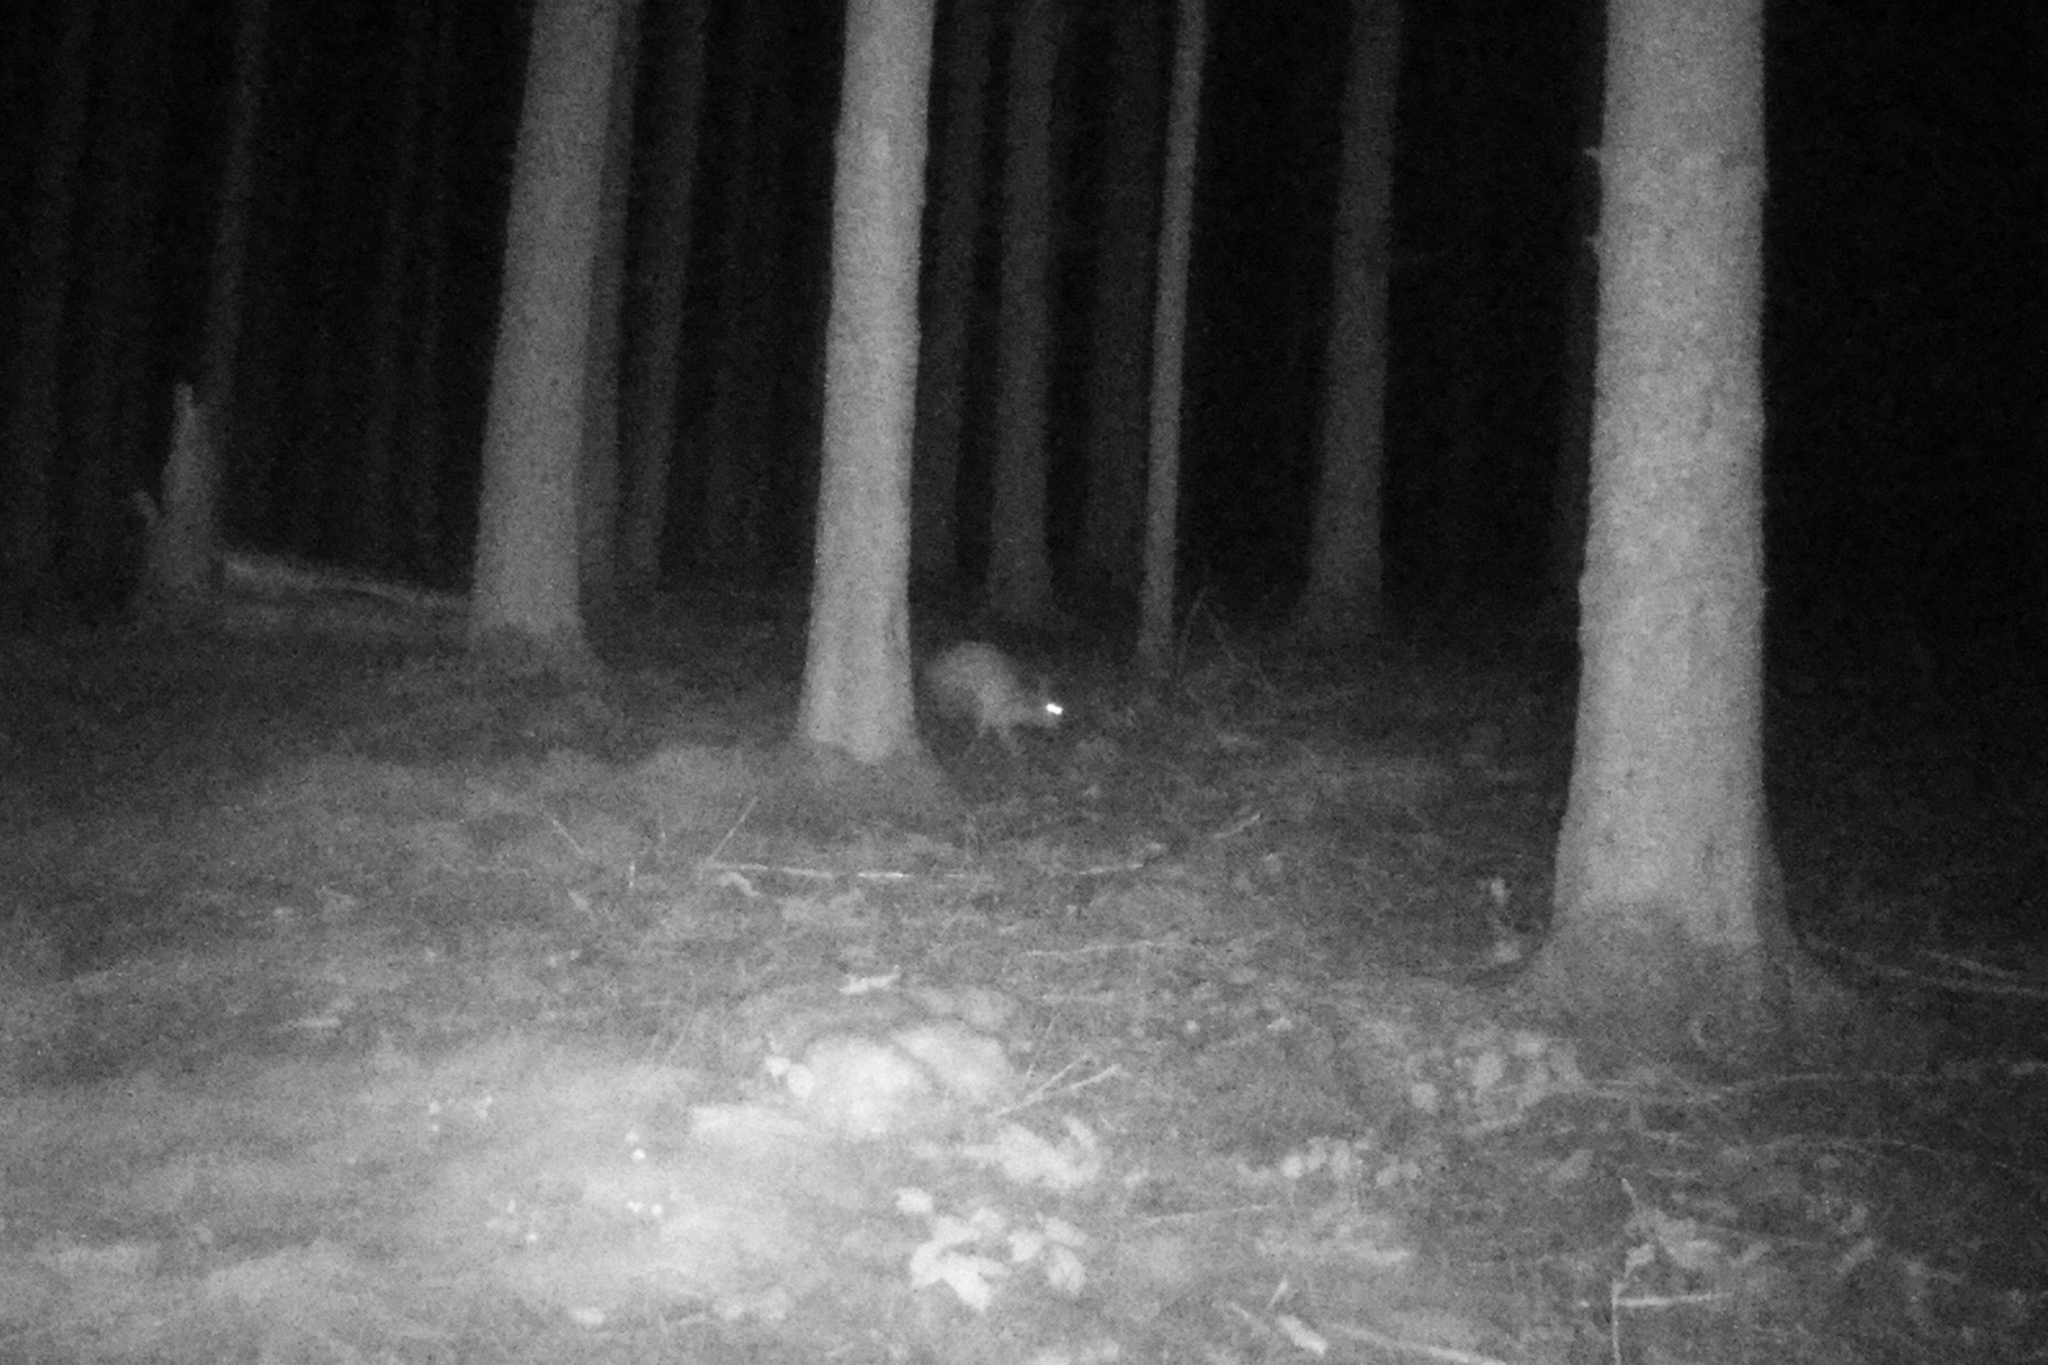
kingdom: Animalia
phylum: Chordata
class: Mammalia
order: Lagomorpha
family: Leporidae
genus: Lepus
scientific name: Lepus europaeus
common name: European hare
